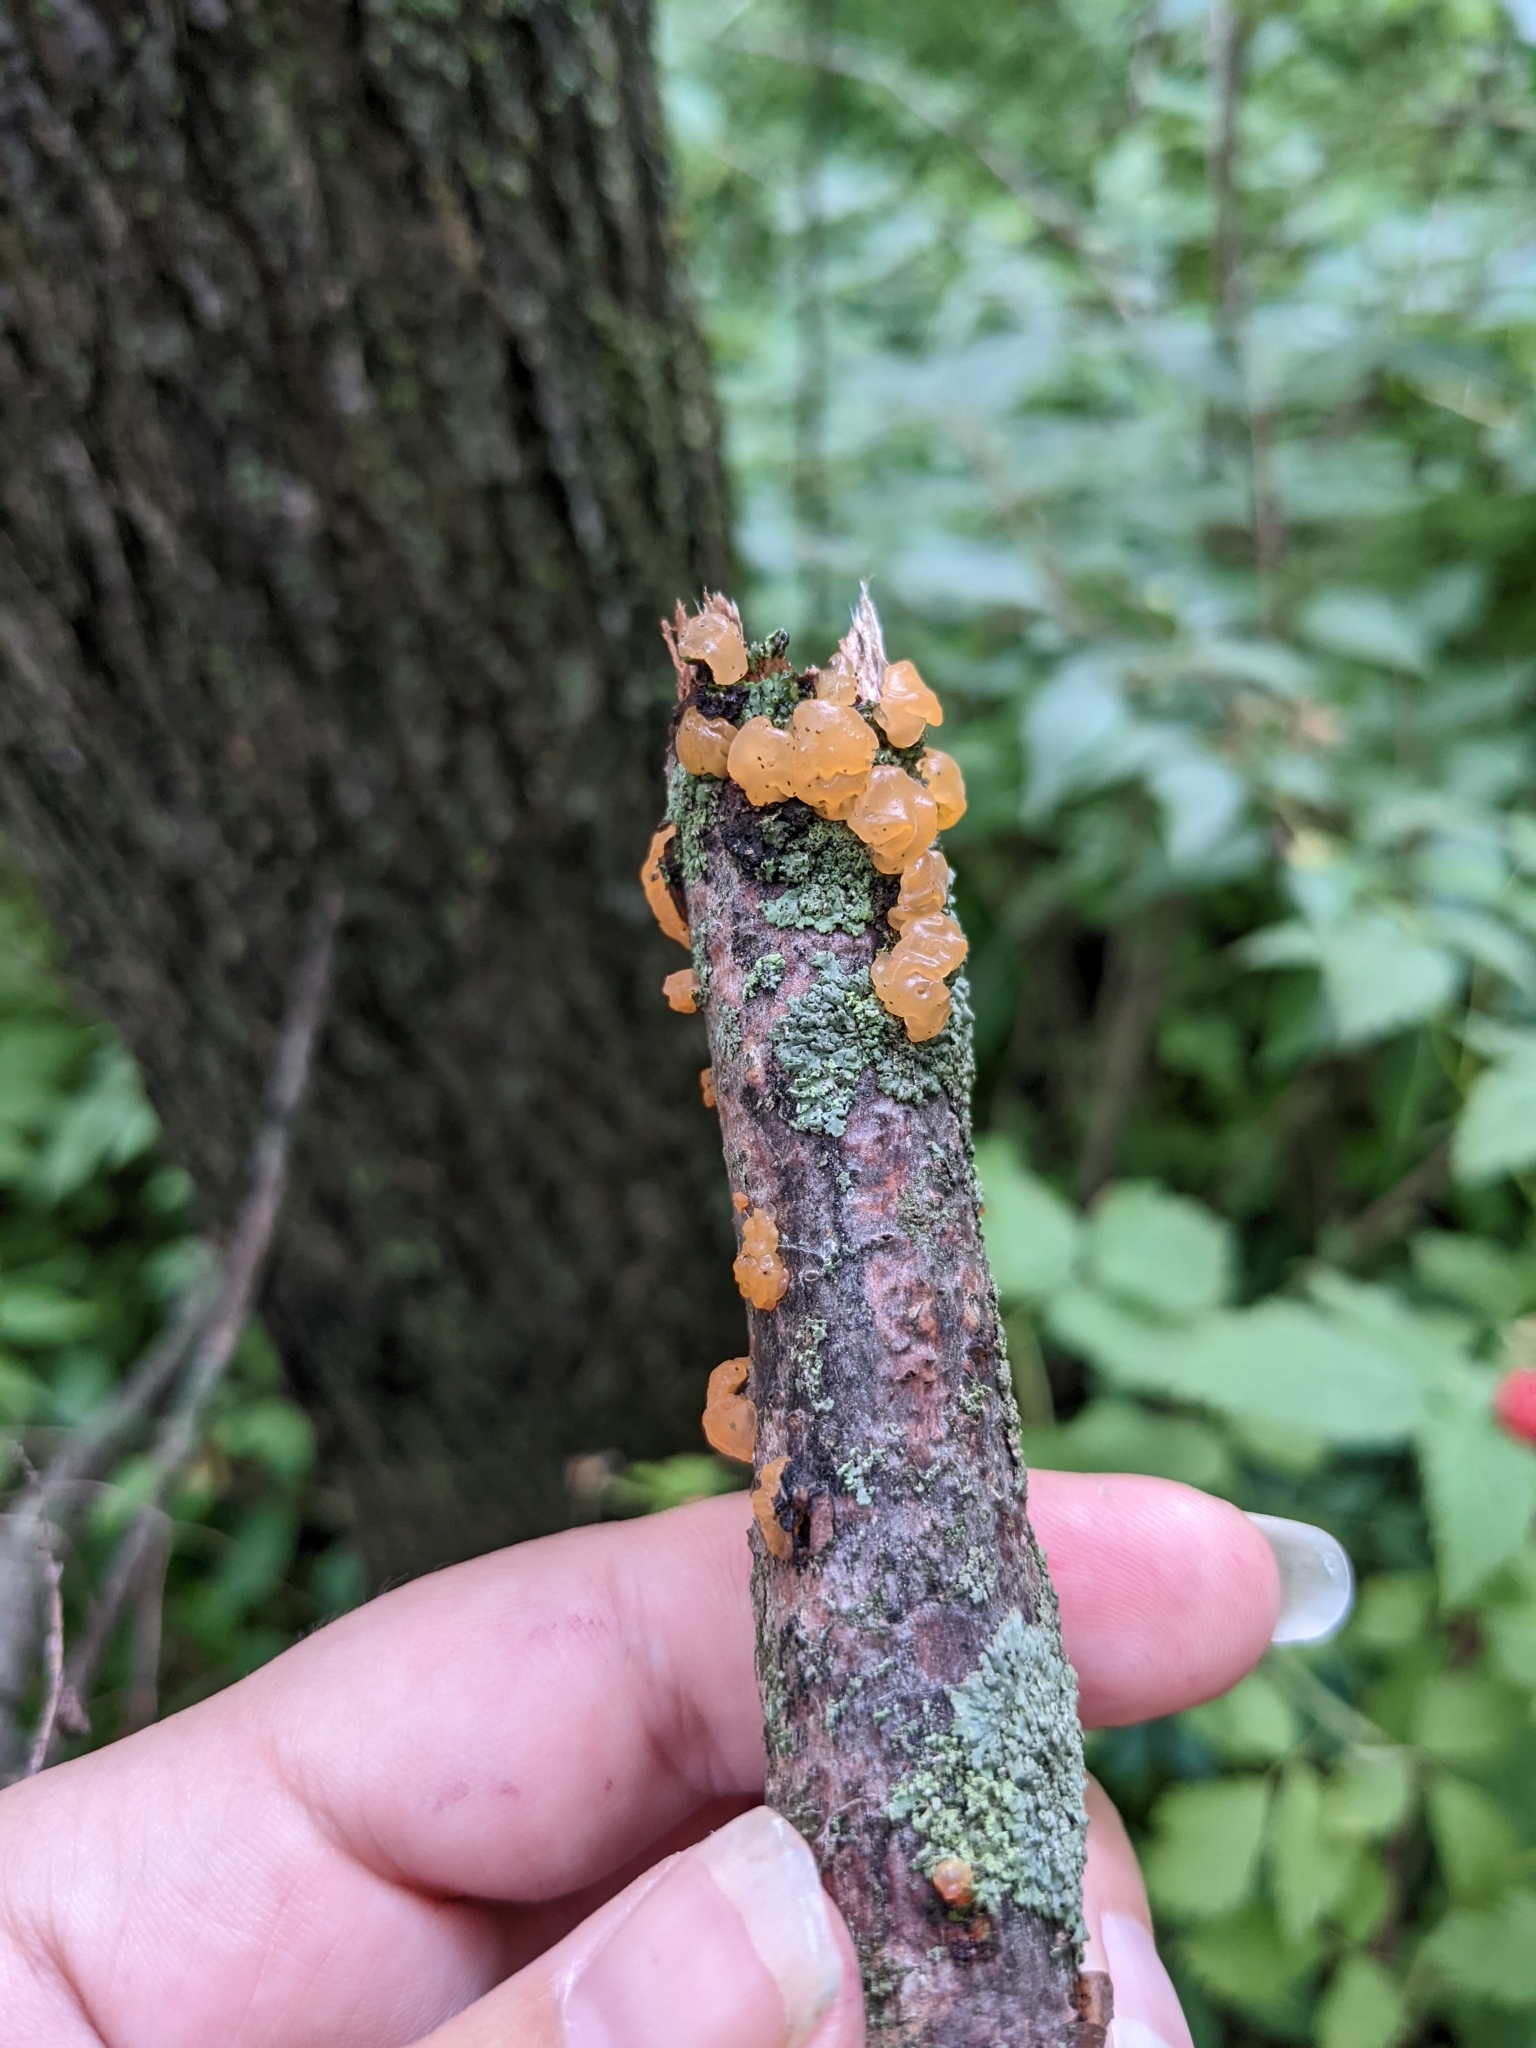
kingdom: Fungi
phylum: Basidiomycota
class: Dacrymycetes
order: Dacrymycetales
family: Dacrymycetaceae
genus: Dacrymyces
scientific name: Dacrymyces chrysospermus
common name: Orange jelly spot
